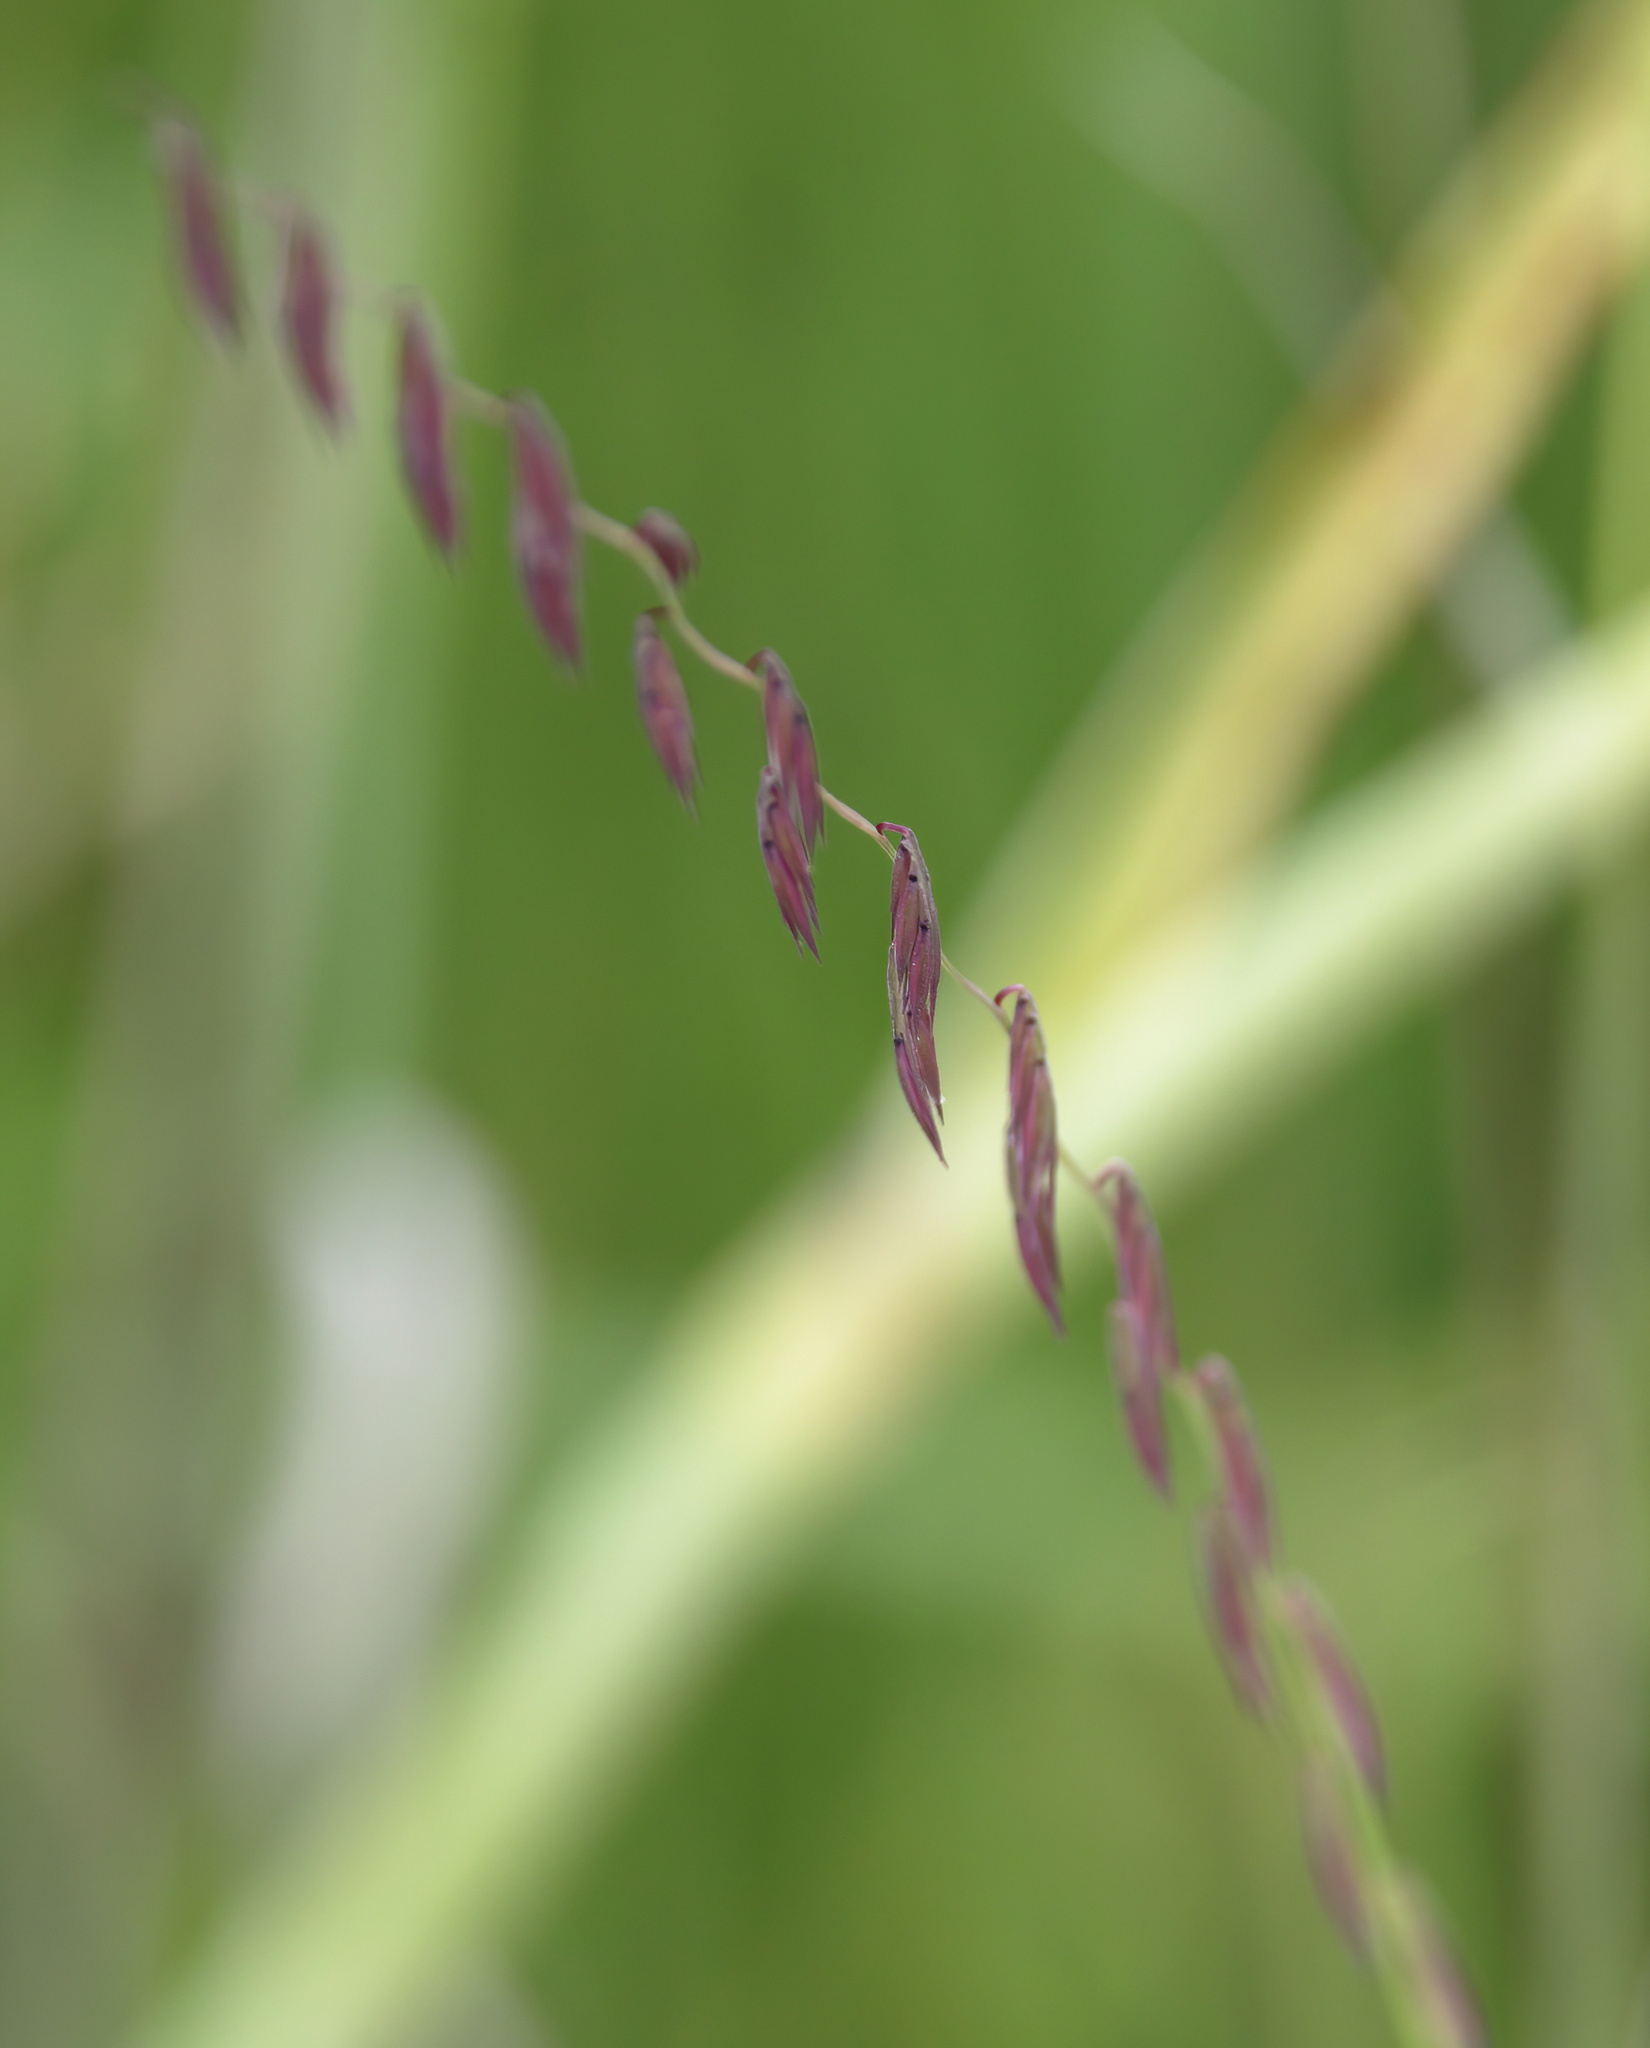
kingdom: Plantae
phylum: Tracheophyta
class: Liliopsida
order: Poales
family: Poaceae
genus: Bouteloua
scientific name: Bouteloua curtipendula
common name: Side-oats grama
